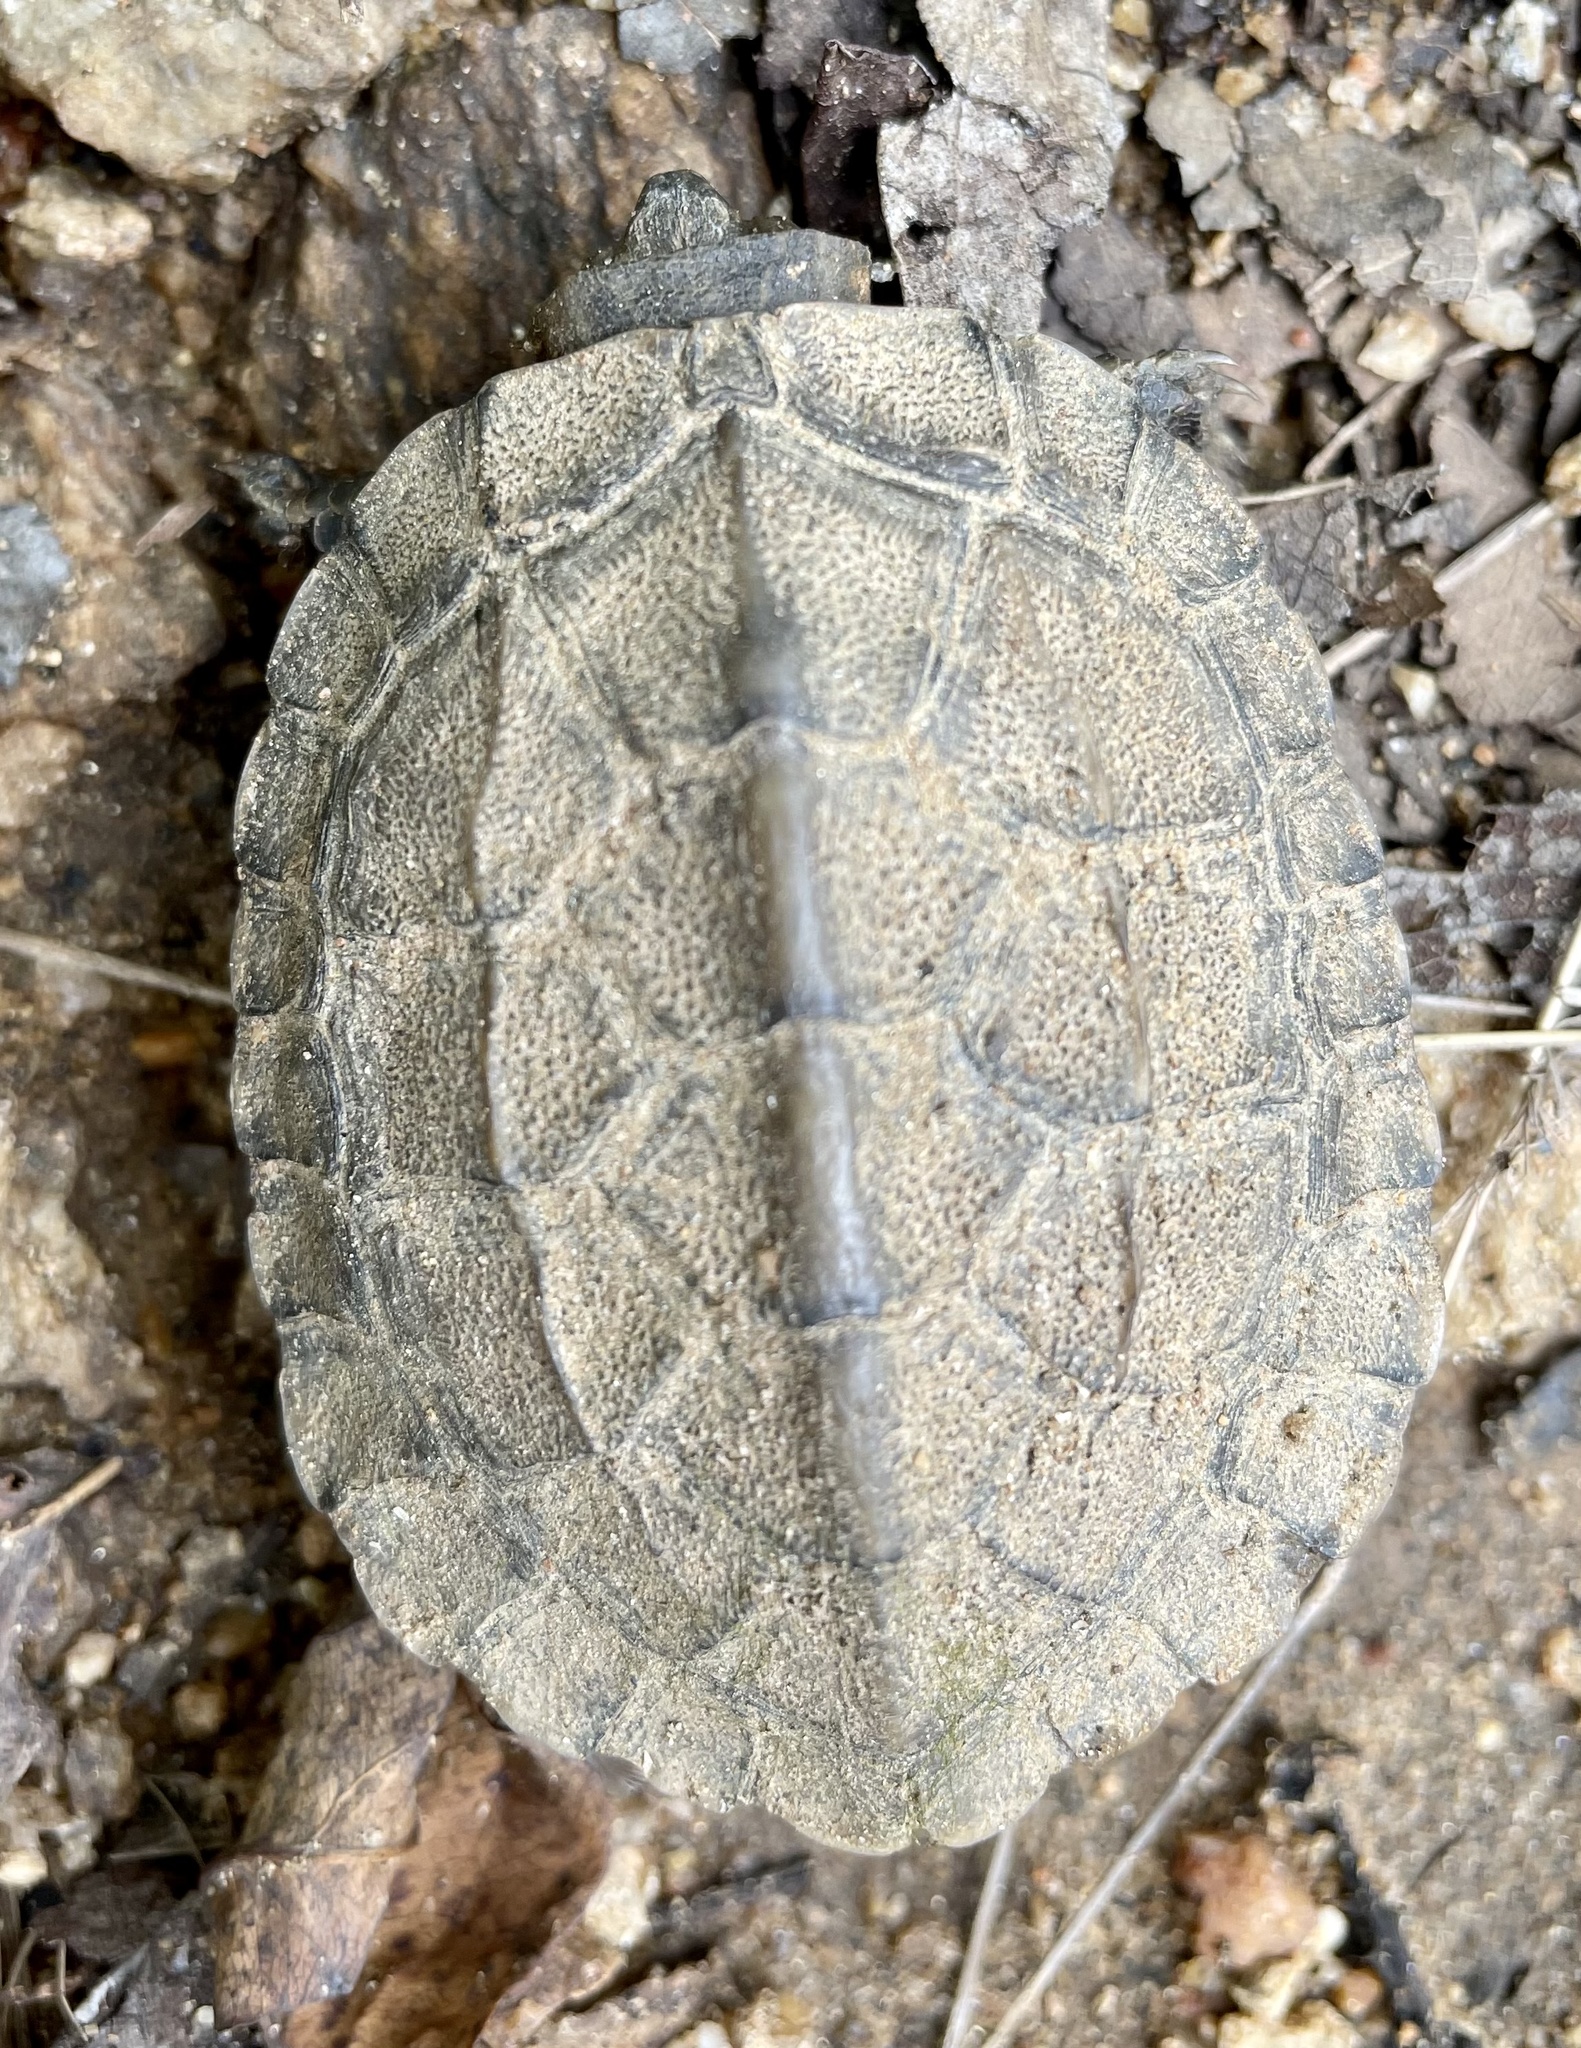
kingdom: Animalia
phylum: Chordata
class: Testudines
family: Geoemydidae
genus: Melanochelys
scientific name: Melanochelys trijuga
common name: Indian black turtle
